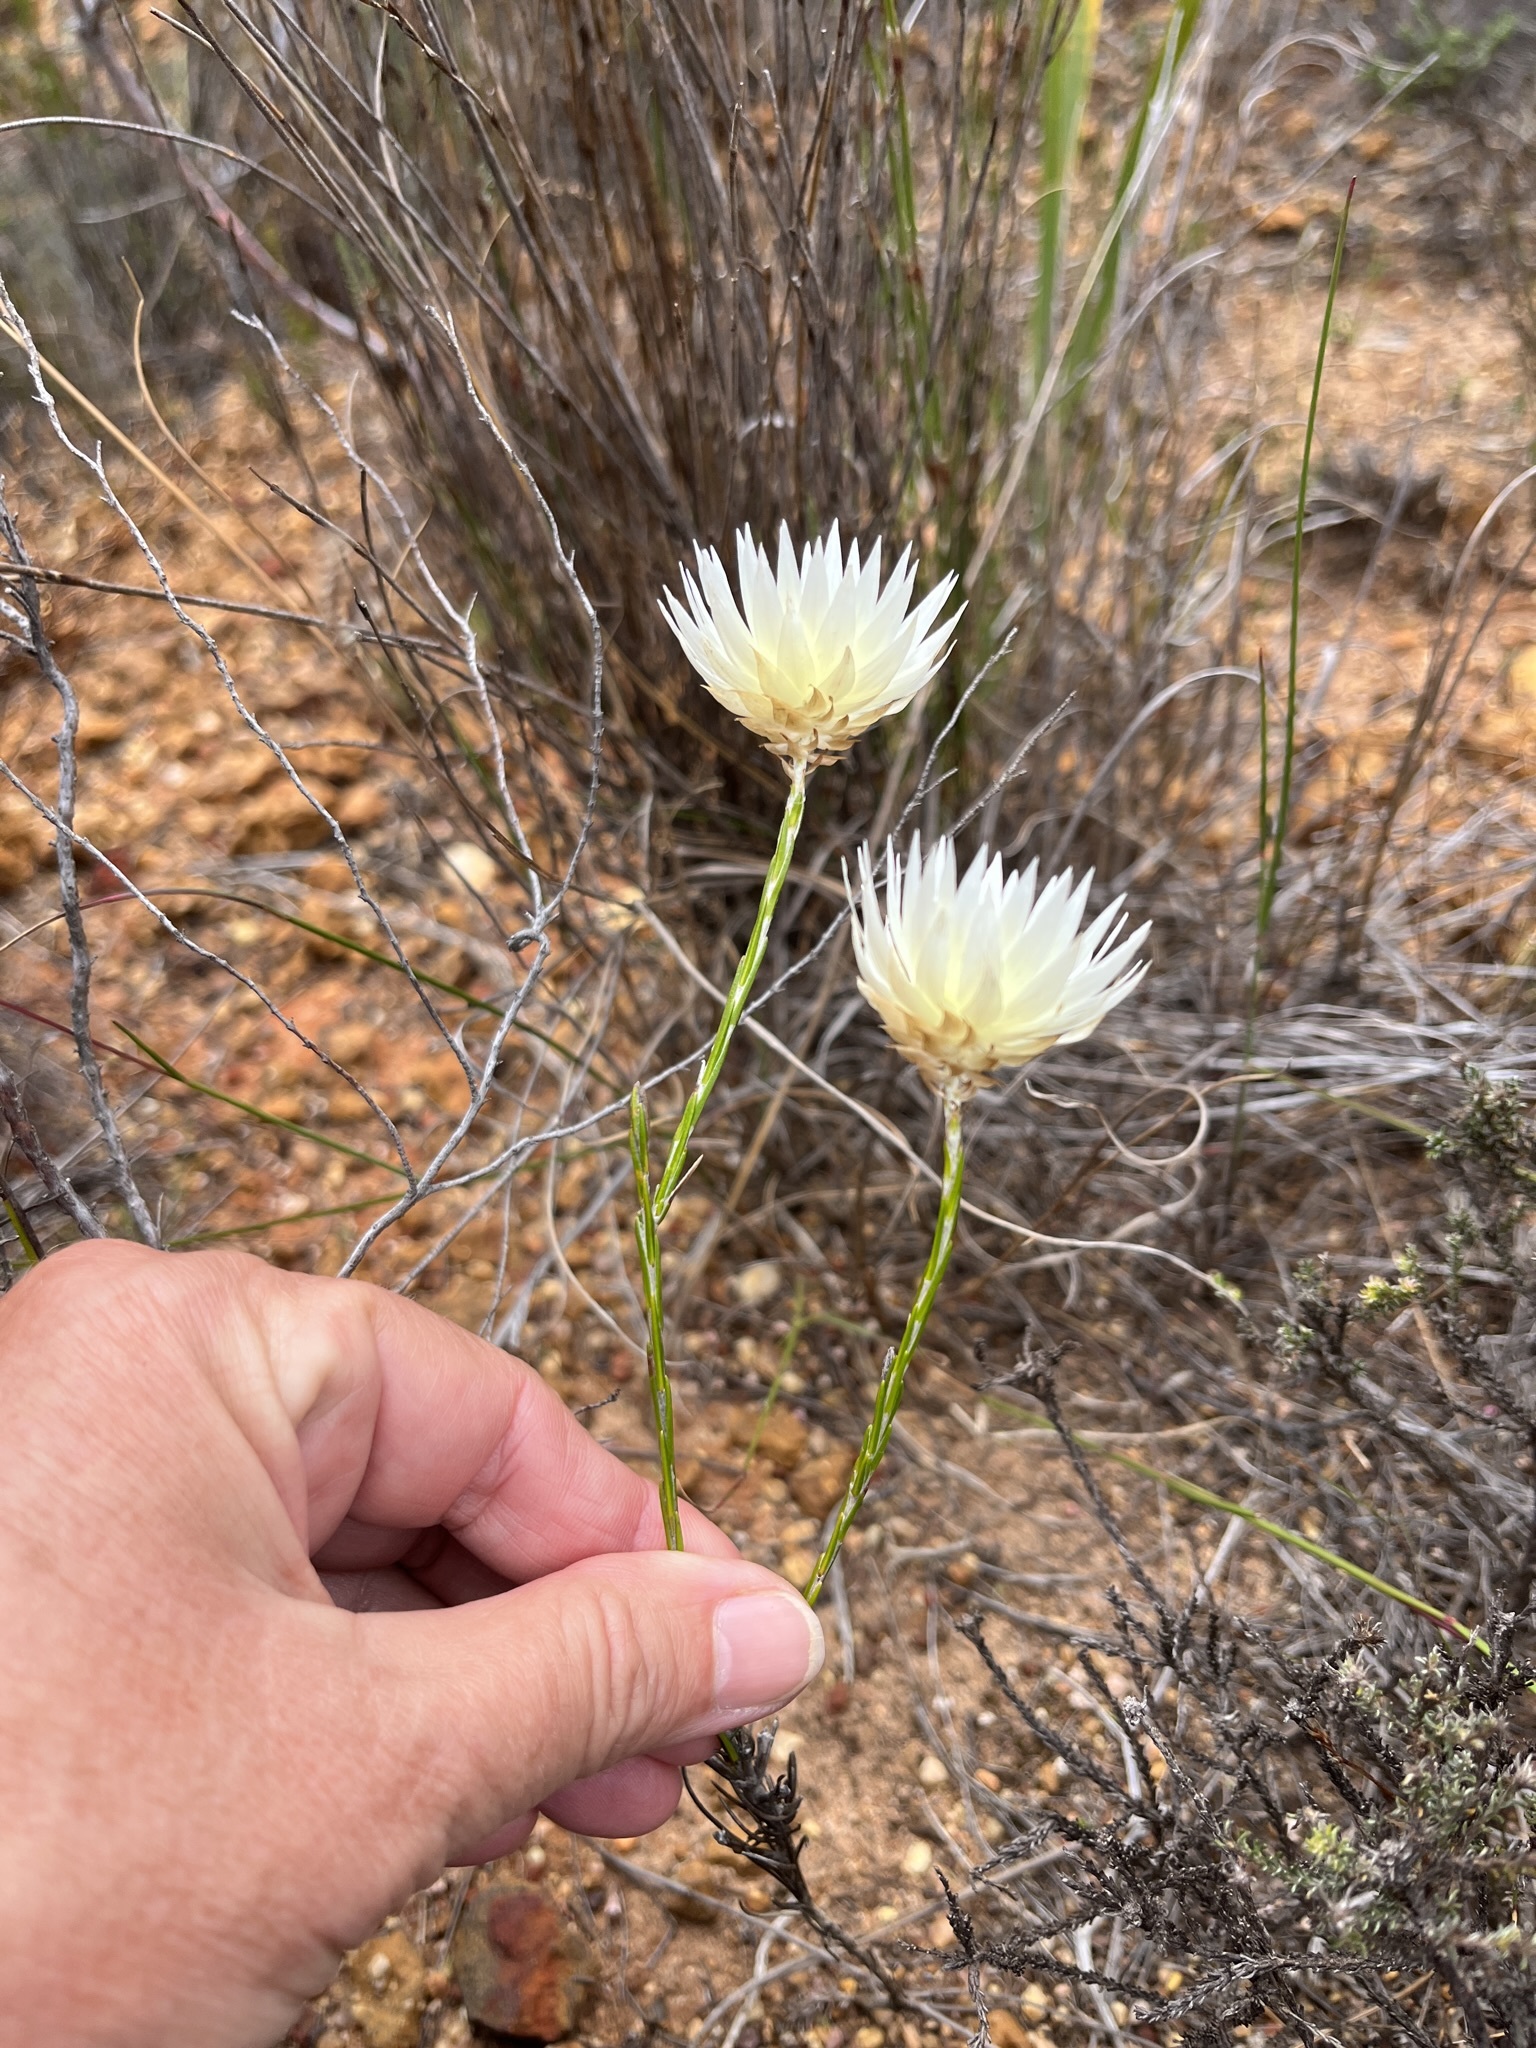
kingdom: Plantae
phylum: Tracheophyta
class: Magnoliopsida
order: Asterales
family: Asteraceae
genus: Edmondia
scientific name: Edmondia sesamoides
